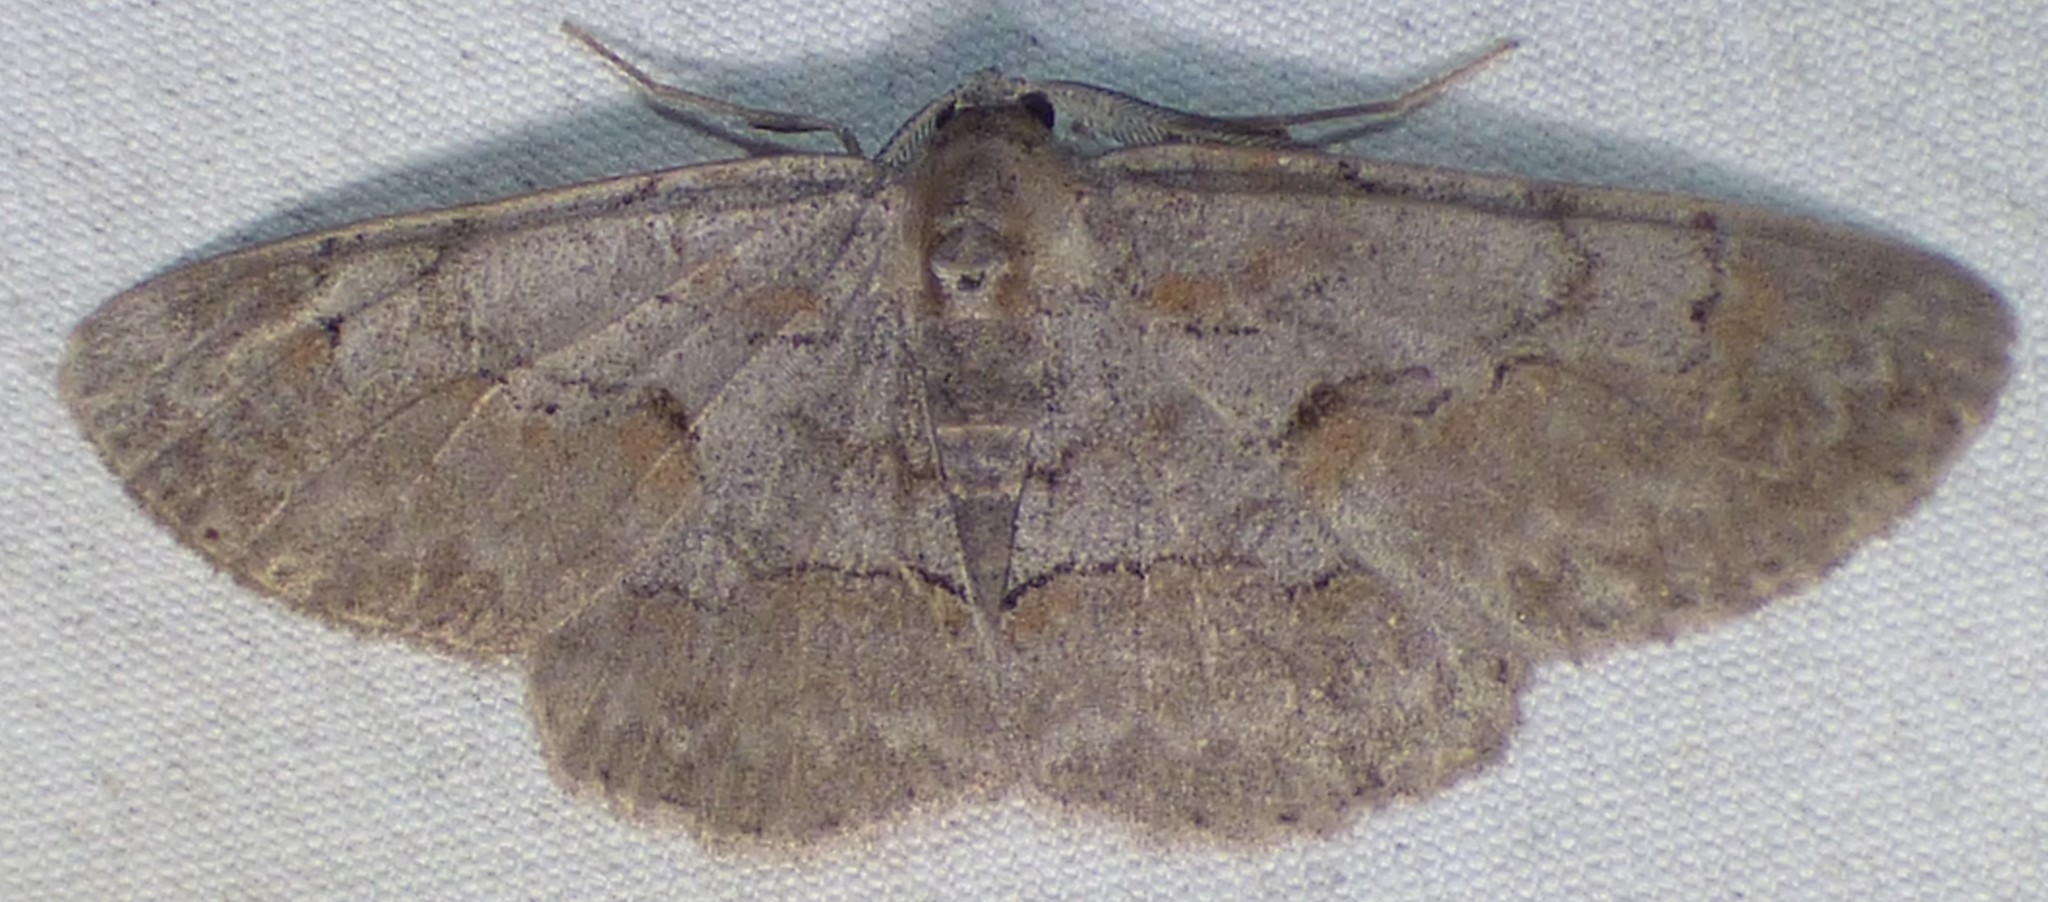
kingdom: Animalia
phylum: Arthropoda
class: Insecta
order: Lepidoptera
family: Geometridae
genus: Iridopsis
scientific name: Iridopsis vellivolata
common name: Large purplish gray
